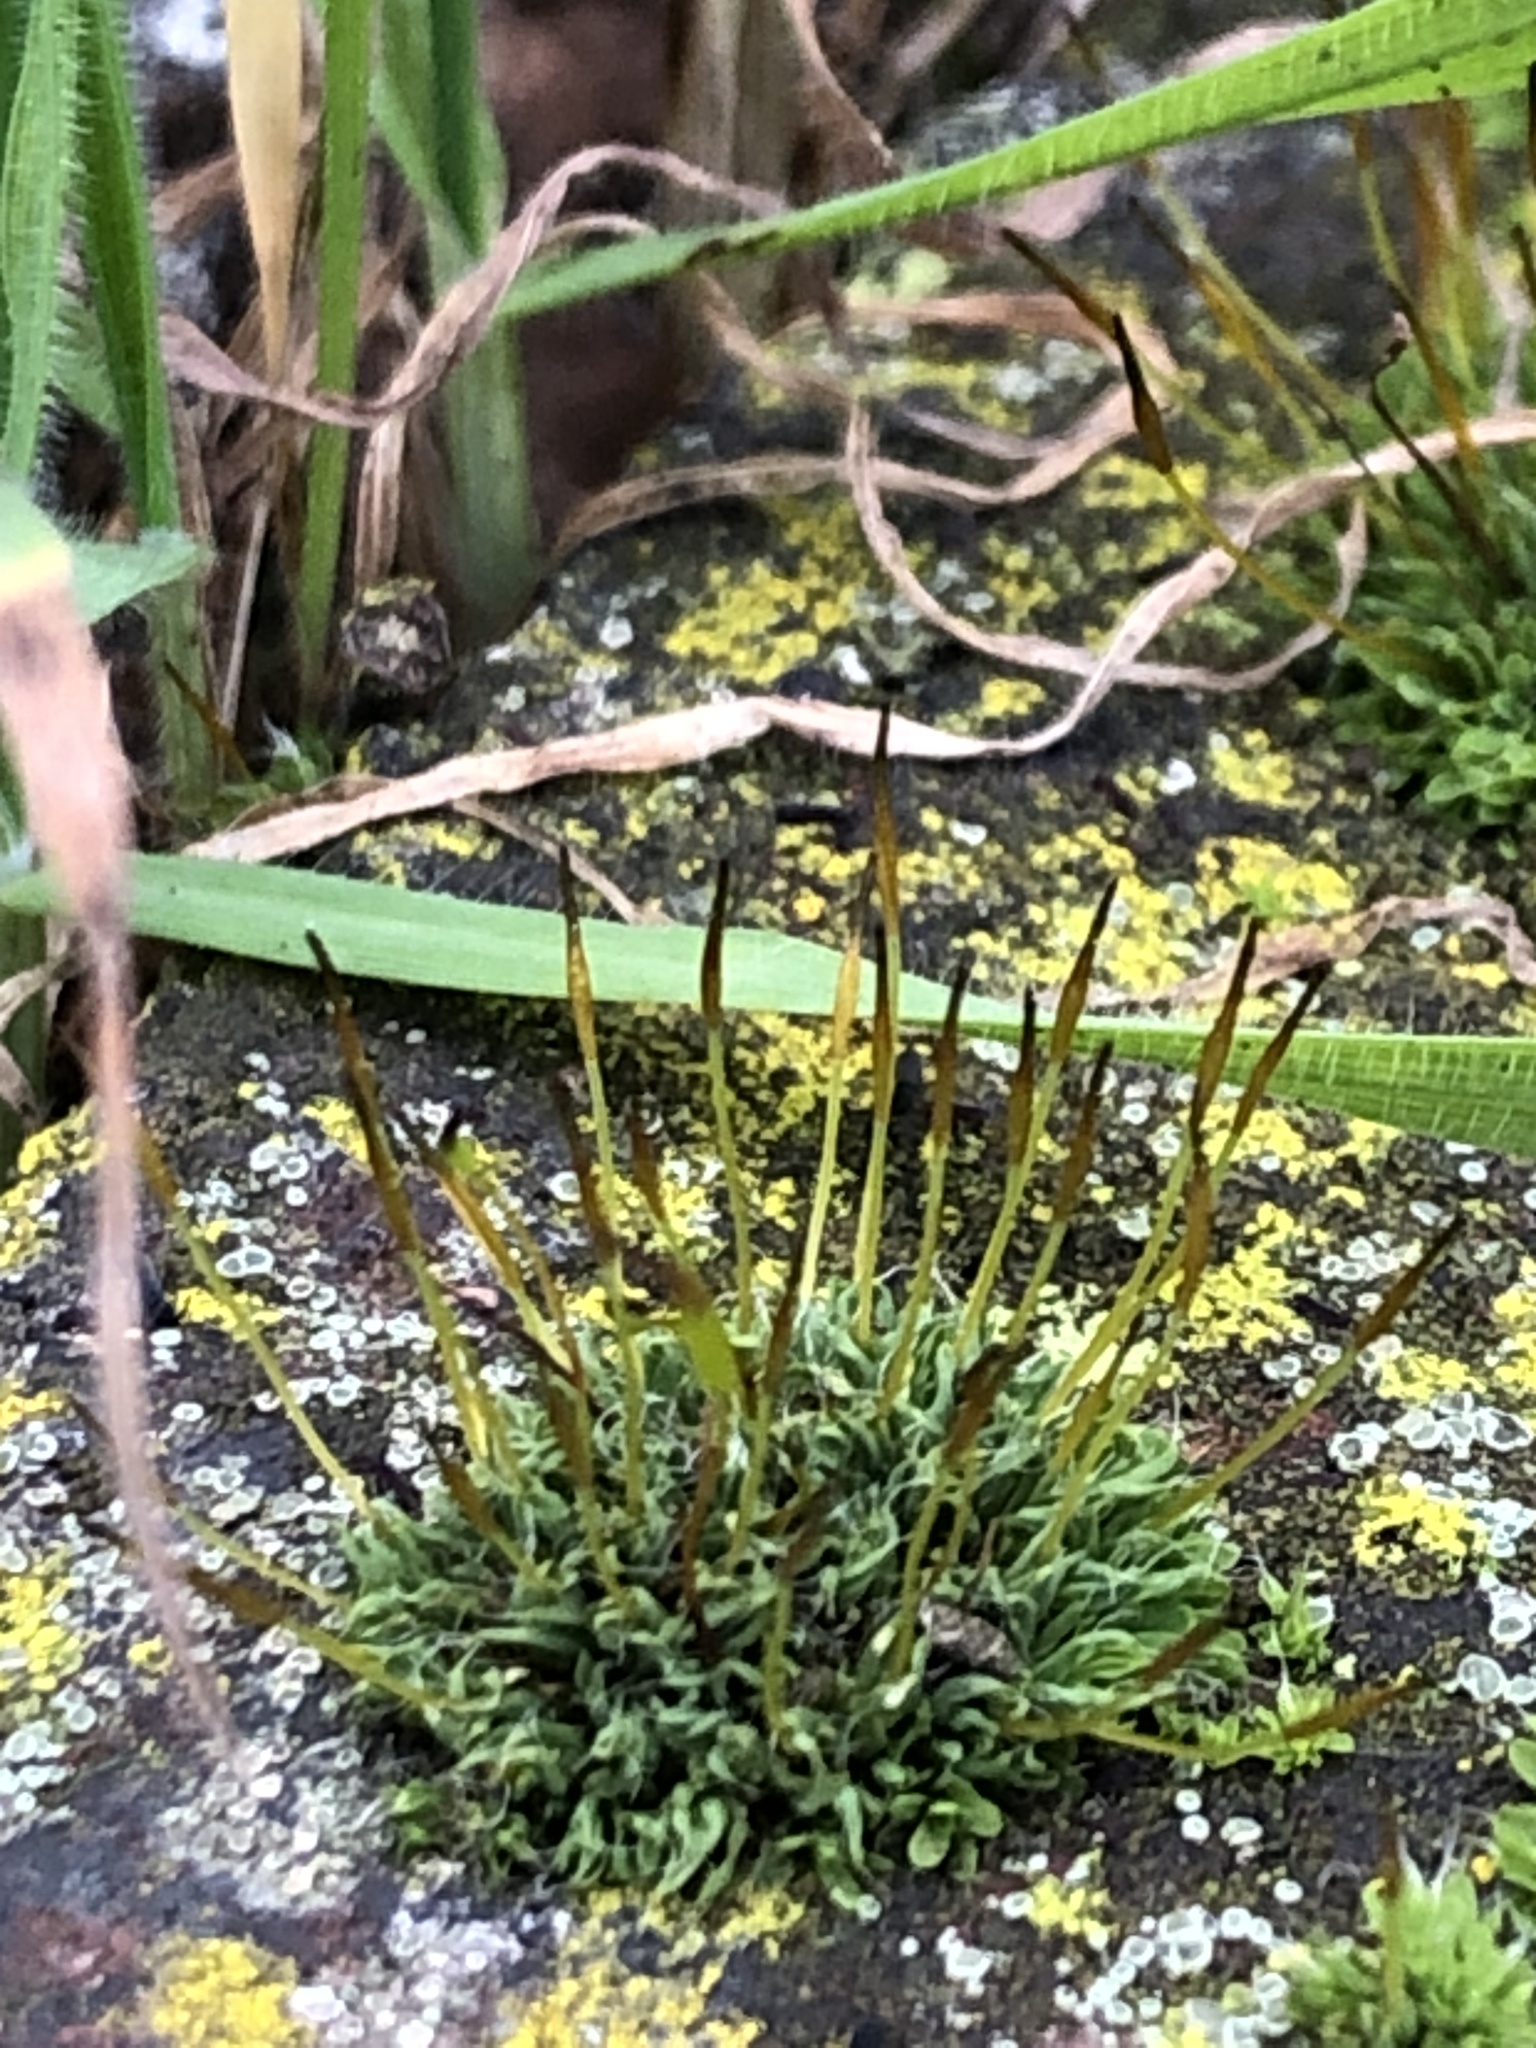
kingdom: Plantae
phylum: Bryophyta
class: Bryopsida
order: Pottiales
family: Pottiaceae
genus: Tortula
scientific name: Tortula muralis
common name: Wall screw-moss
